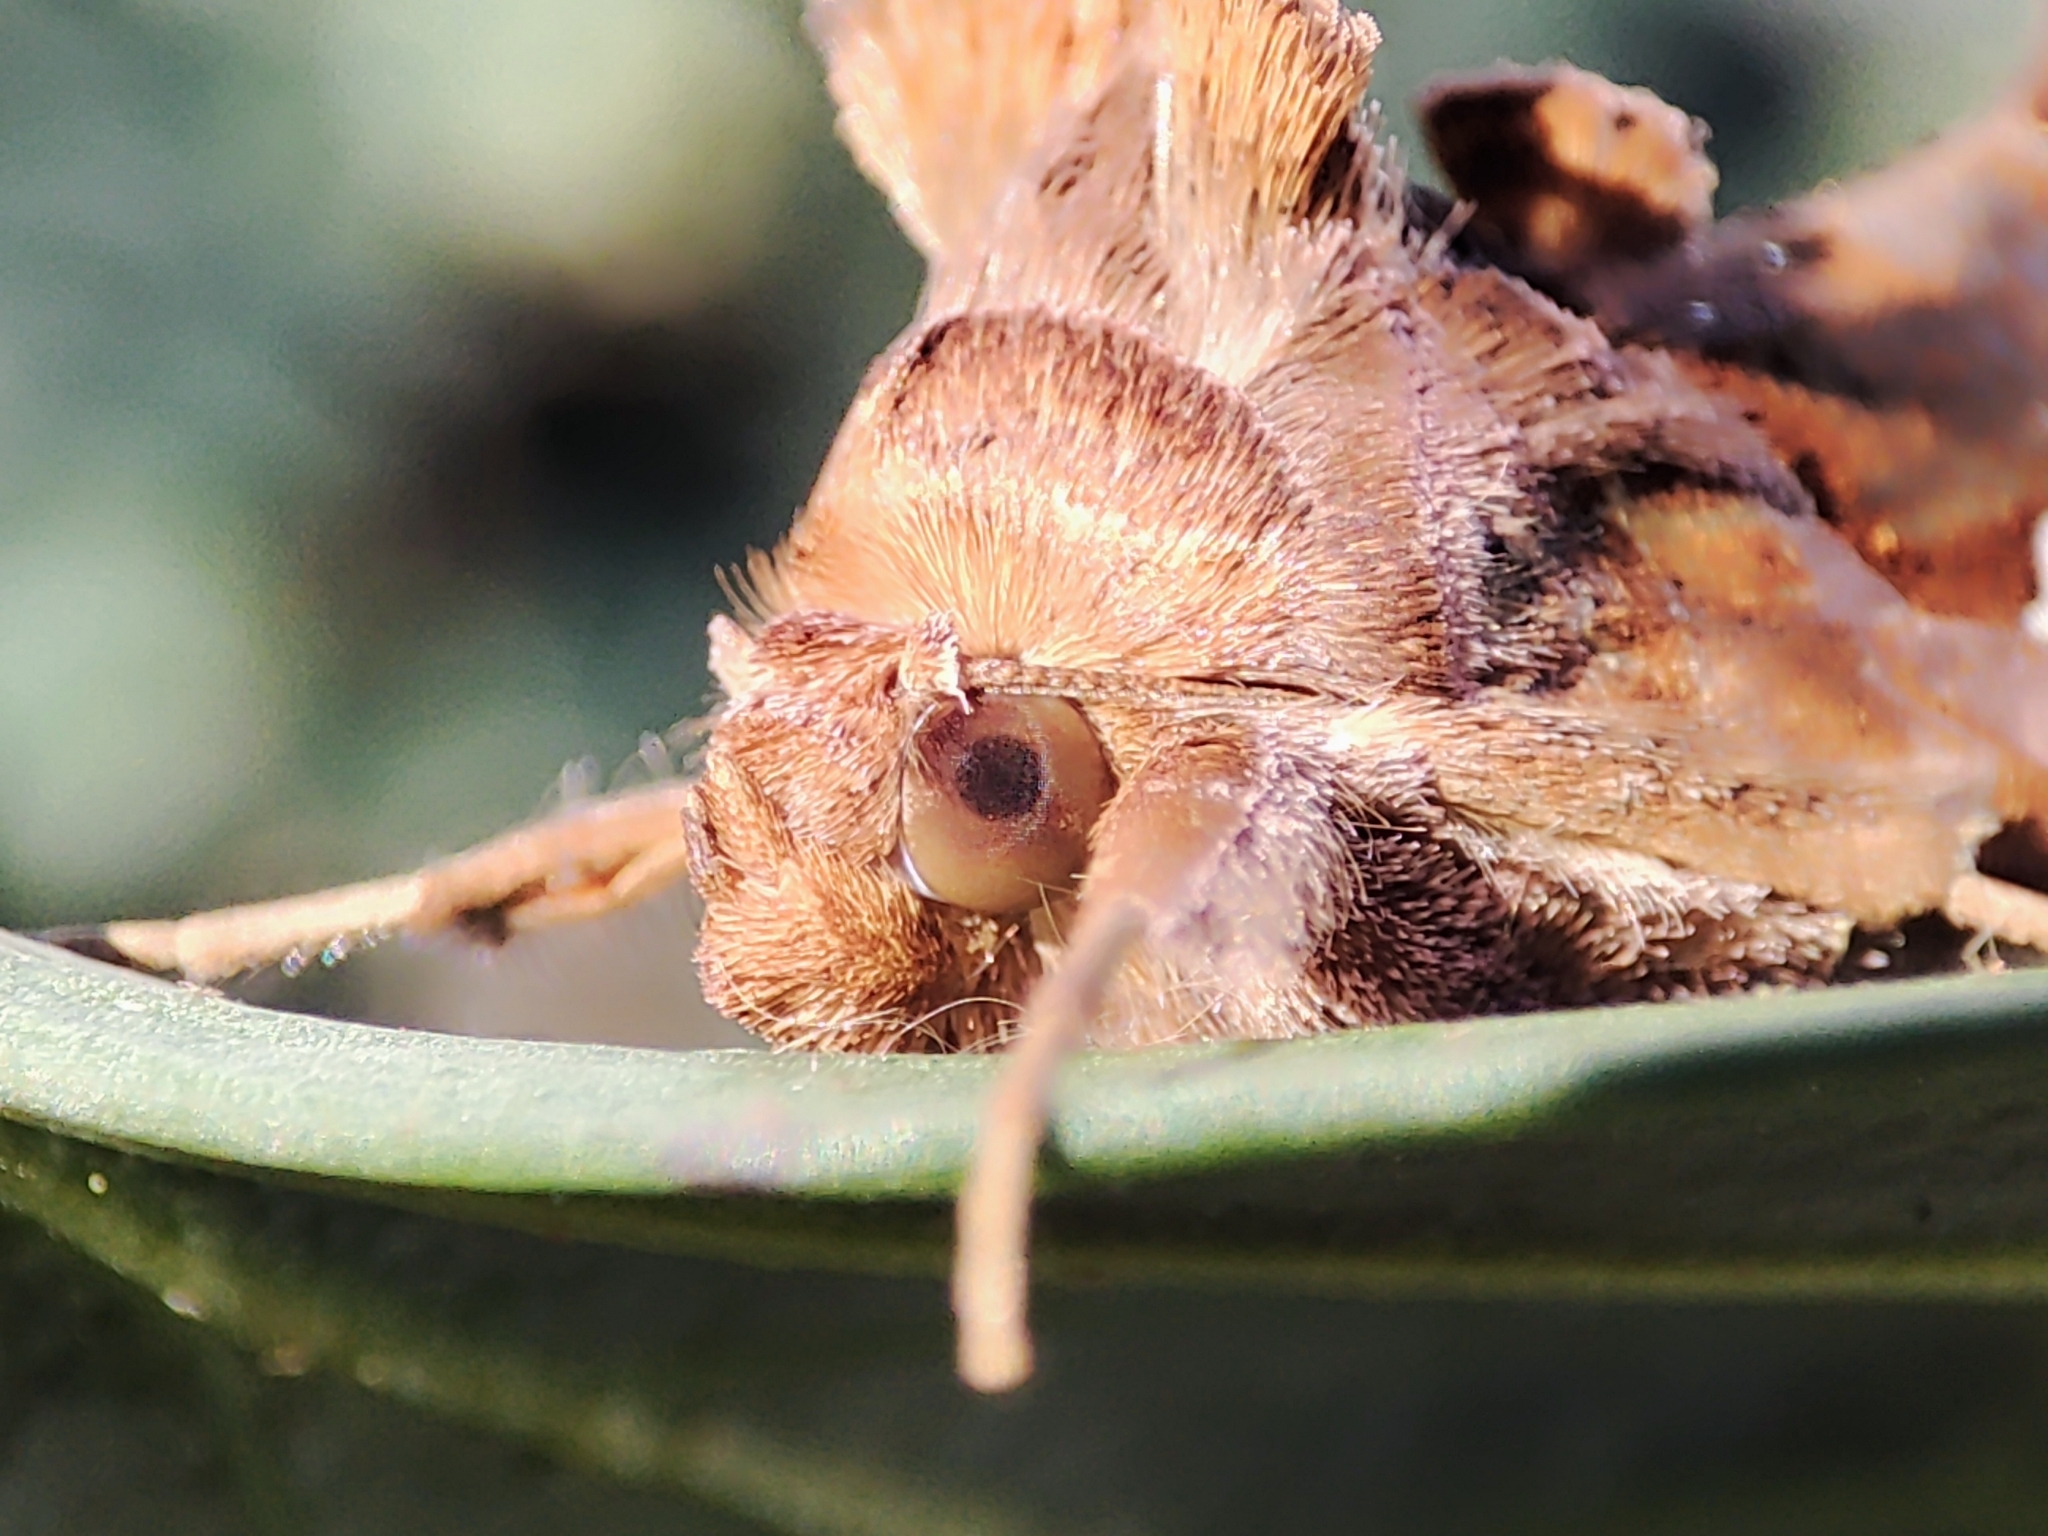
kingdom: Animalia
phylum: Arthropoda
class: Insecta
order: Lepidoptera
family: Noctuidae
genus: Chrysodeixis
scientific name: Chrysodeixis chalcites
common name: Golden twin-spot
